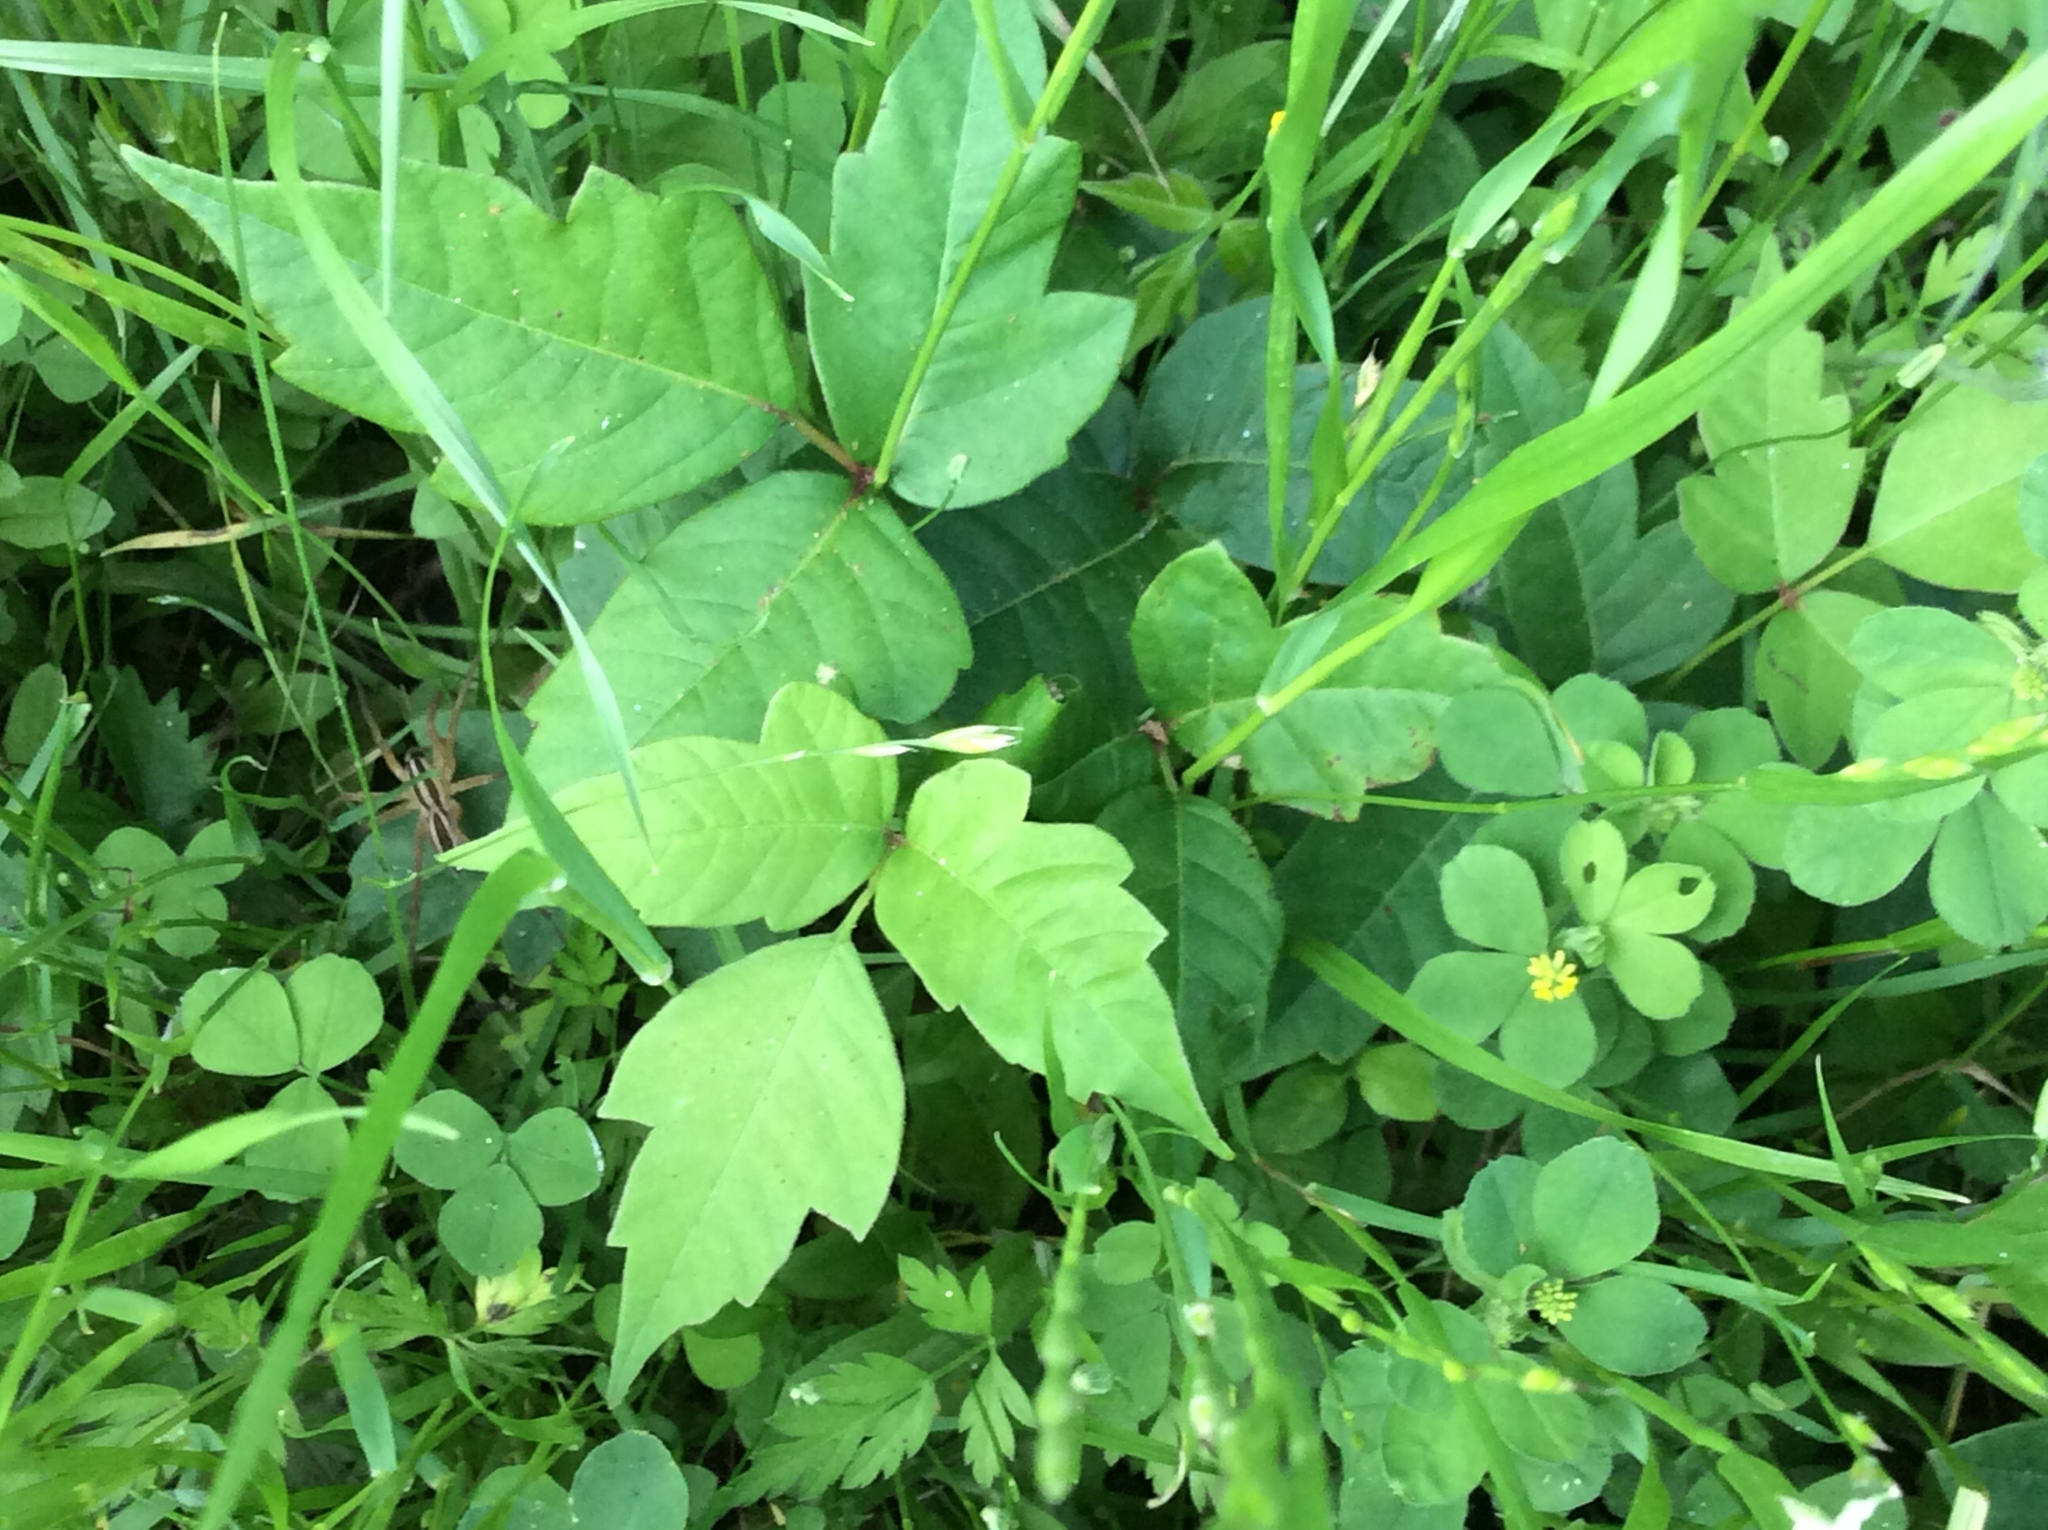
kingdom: Plantae
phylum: Tracheophyta
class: Magnoliopsida
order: Sapindales
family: Anacardiaceae
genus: Toxicodendron
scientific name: Toxicodendron radicans
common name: Poison ivy
